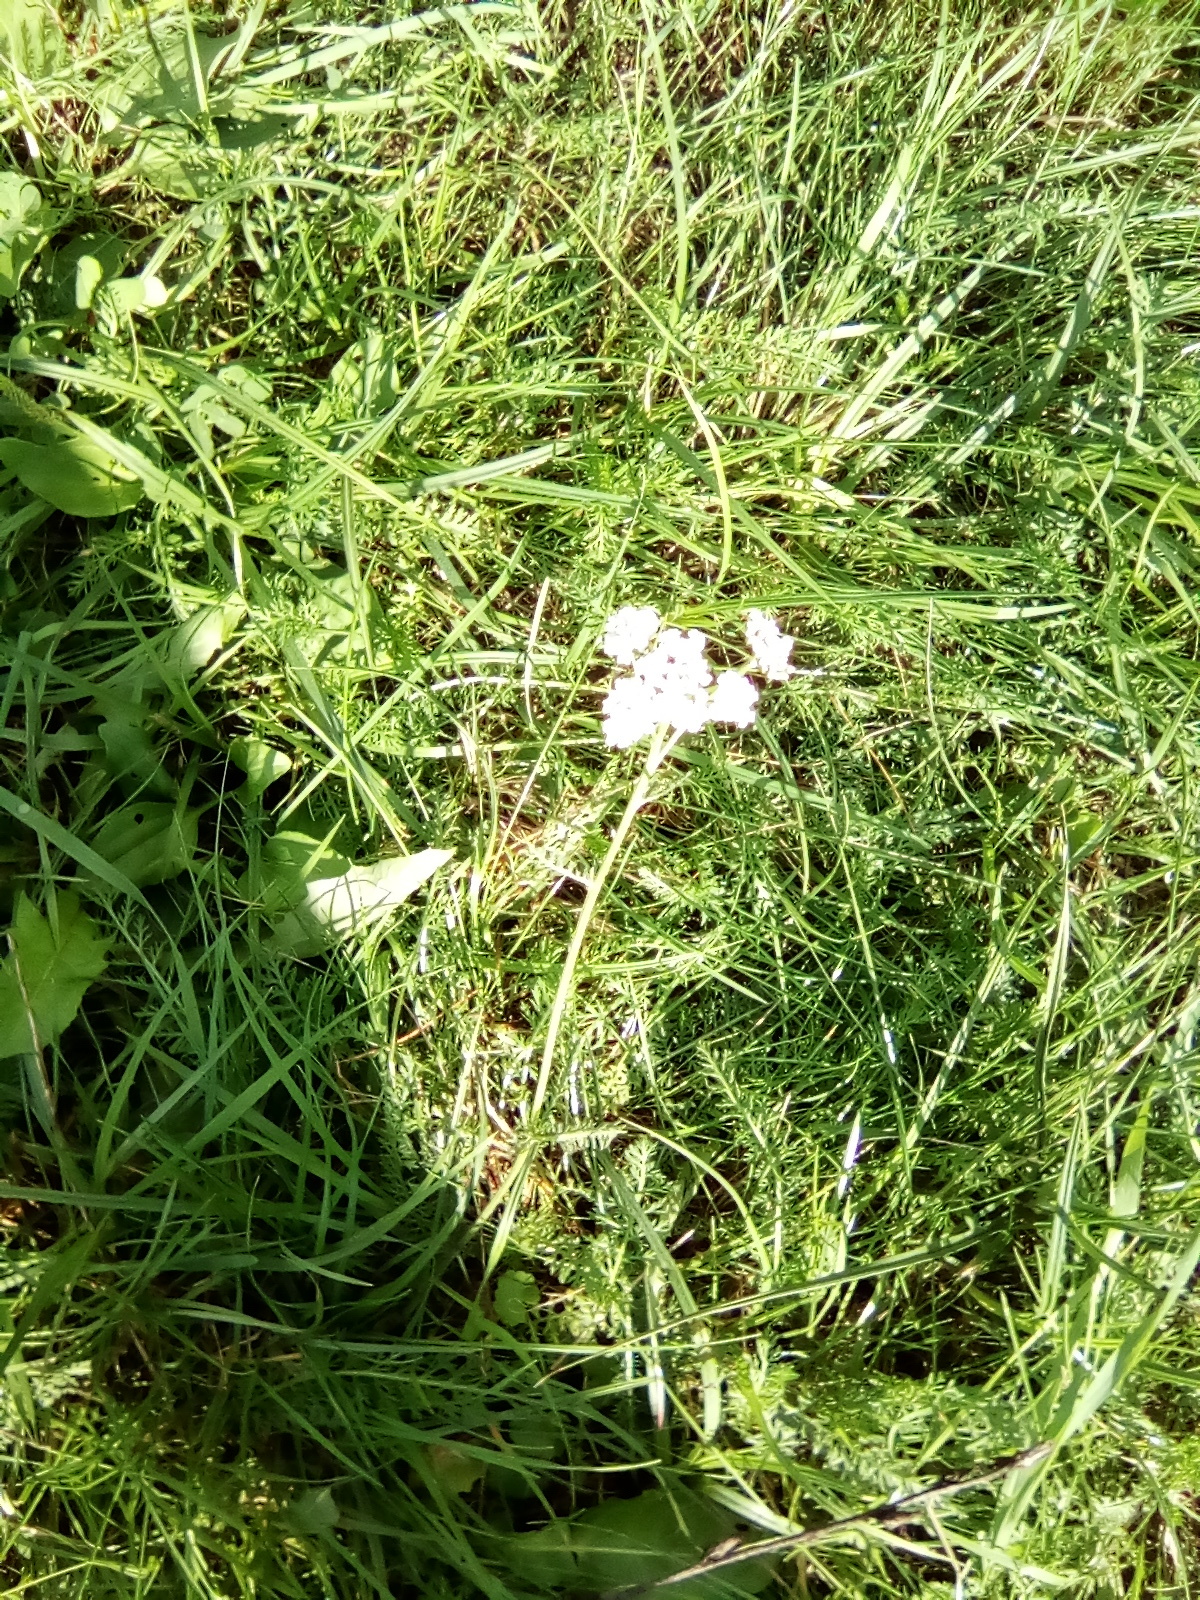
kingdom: Plantae
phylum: Tracheophyta
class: Magnoliopsida
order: Asterales
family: Asteraceae
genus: Achillea
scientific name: Achillea millefolium
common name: Yarrow
